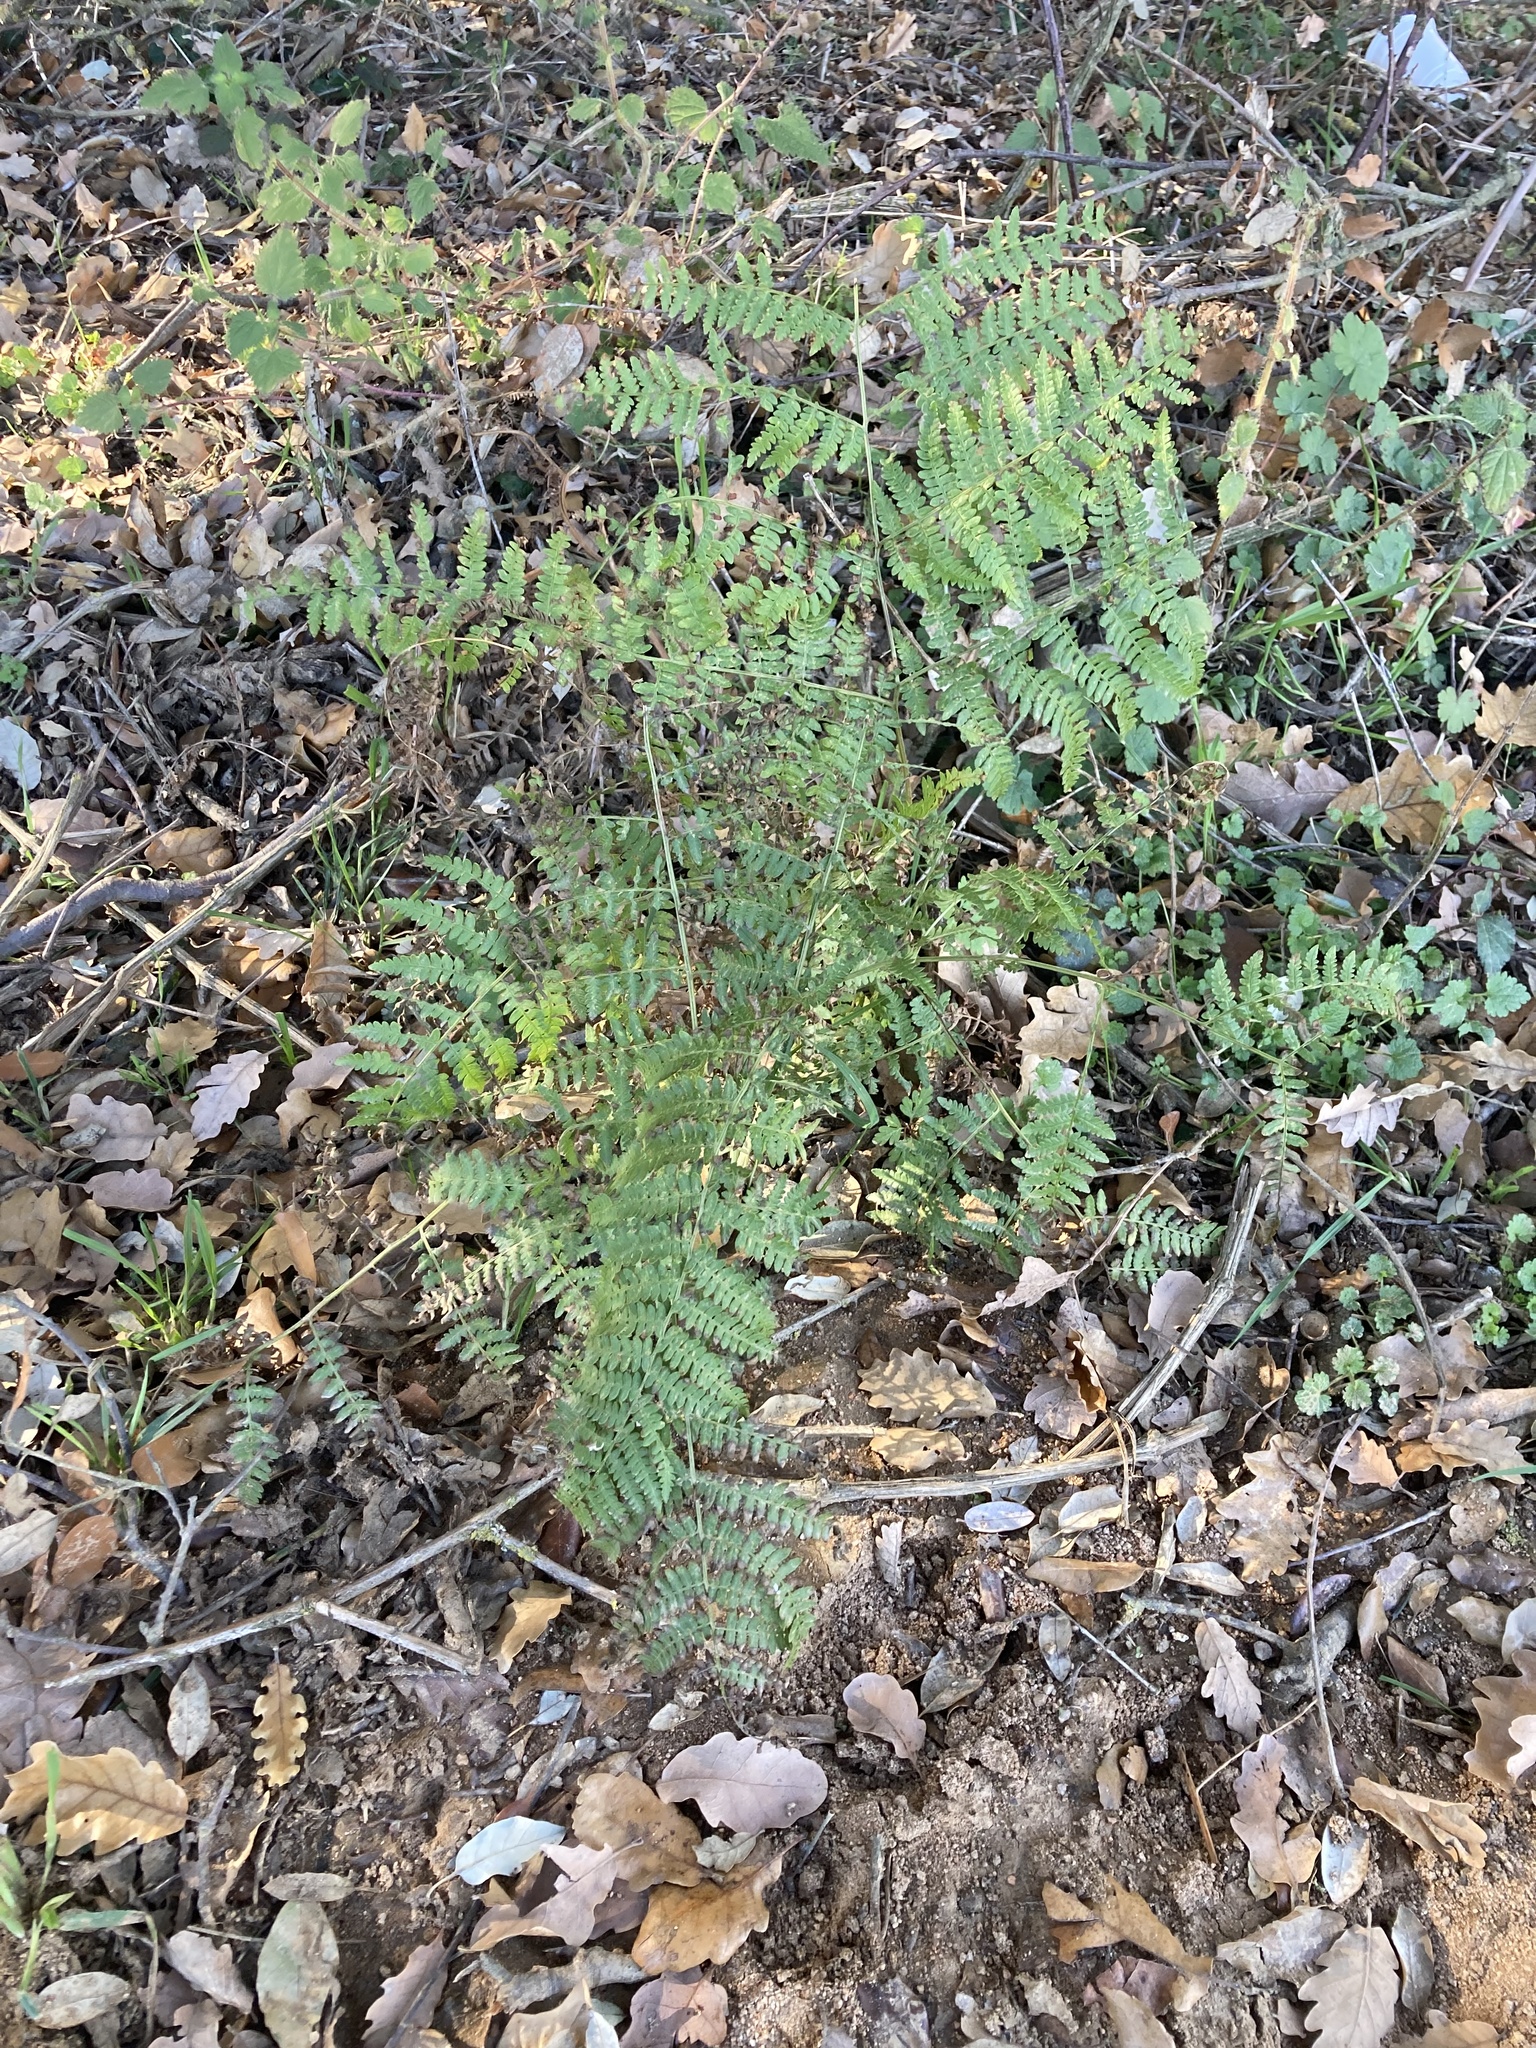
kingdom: Plantae
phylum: Tracheophyta
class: Polypodiopsida
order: Polypodiales
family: Dennstaedtiaceae
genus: Pteridium
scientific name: Pteridium aquilinum
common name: Bracken
